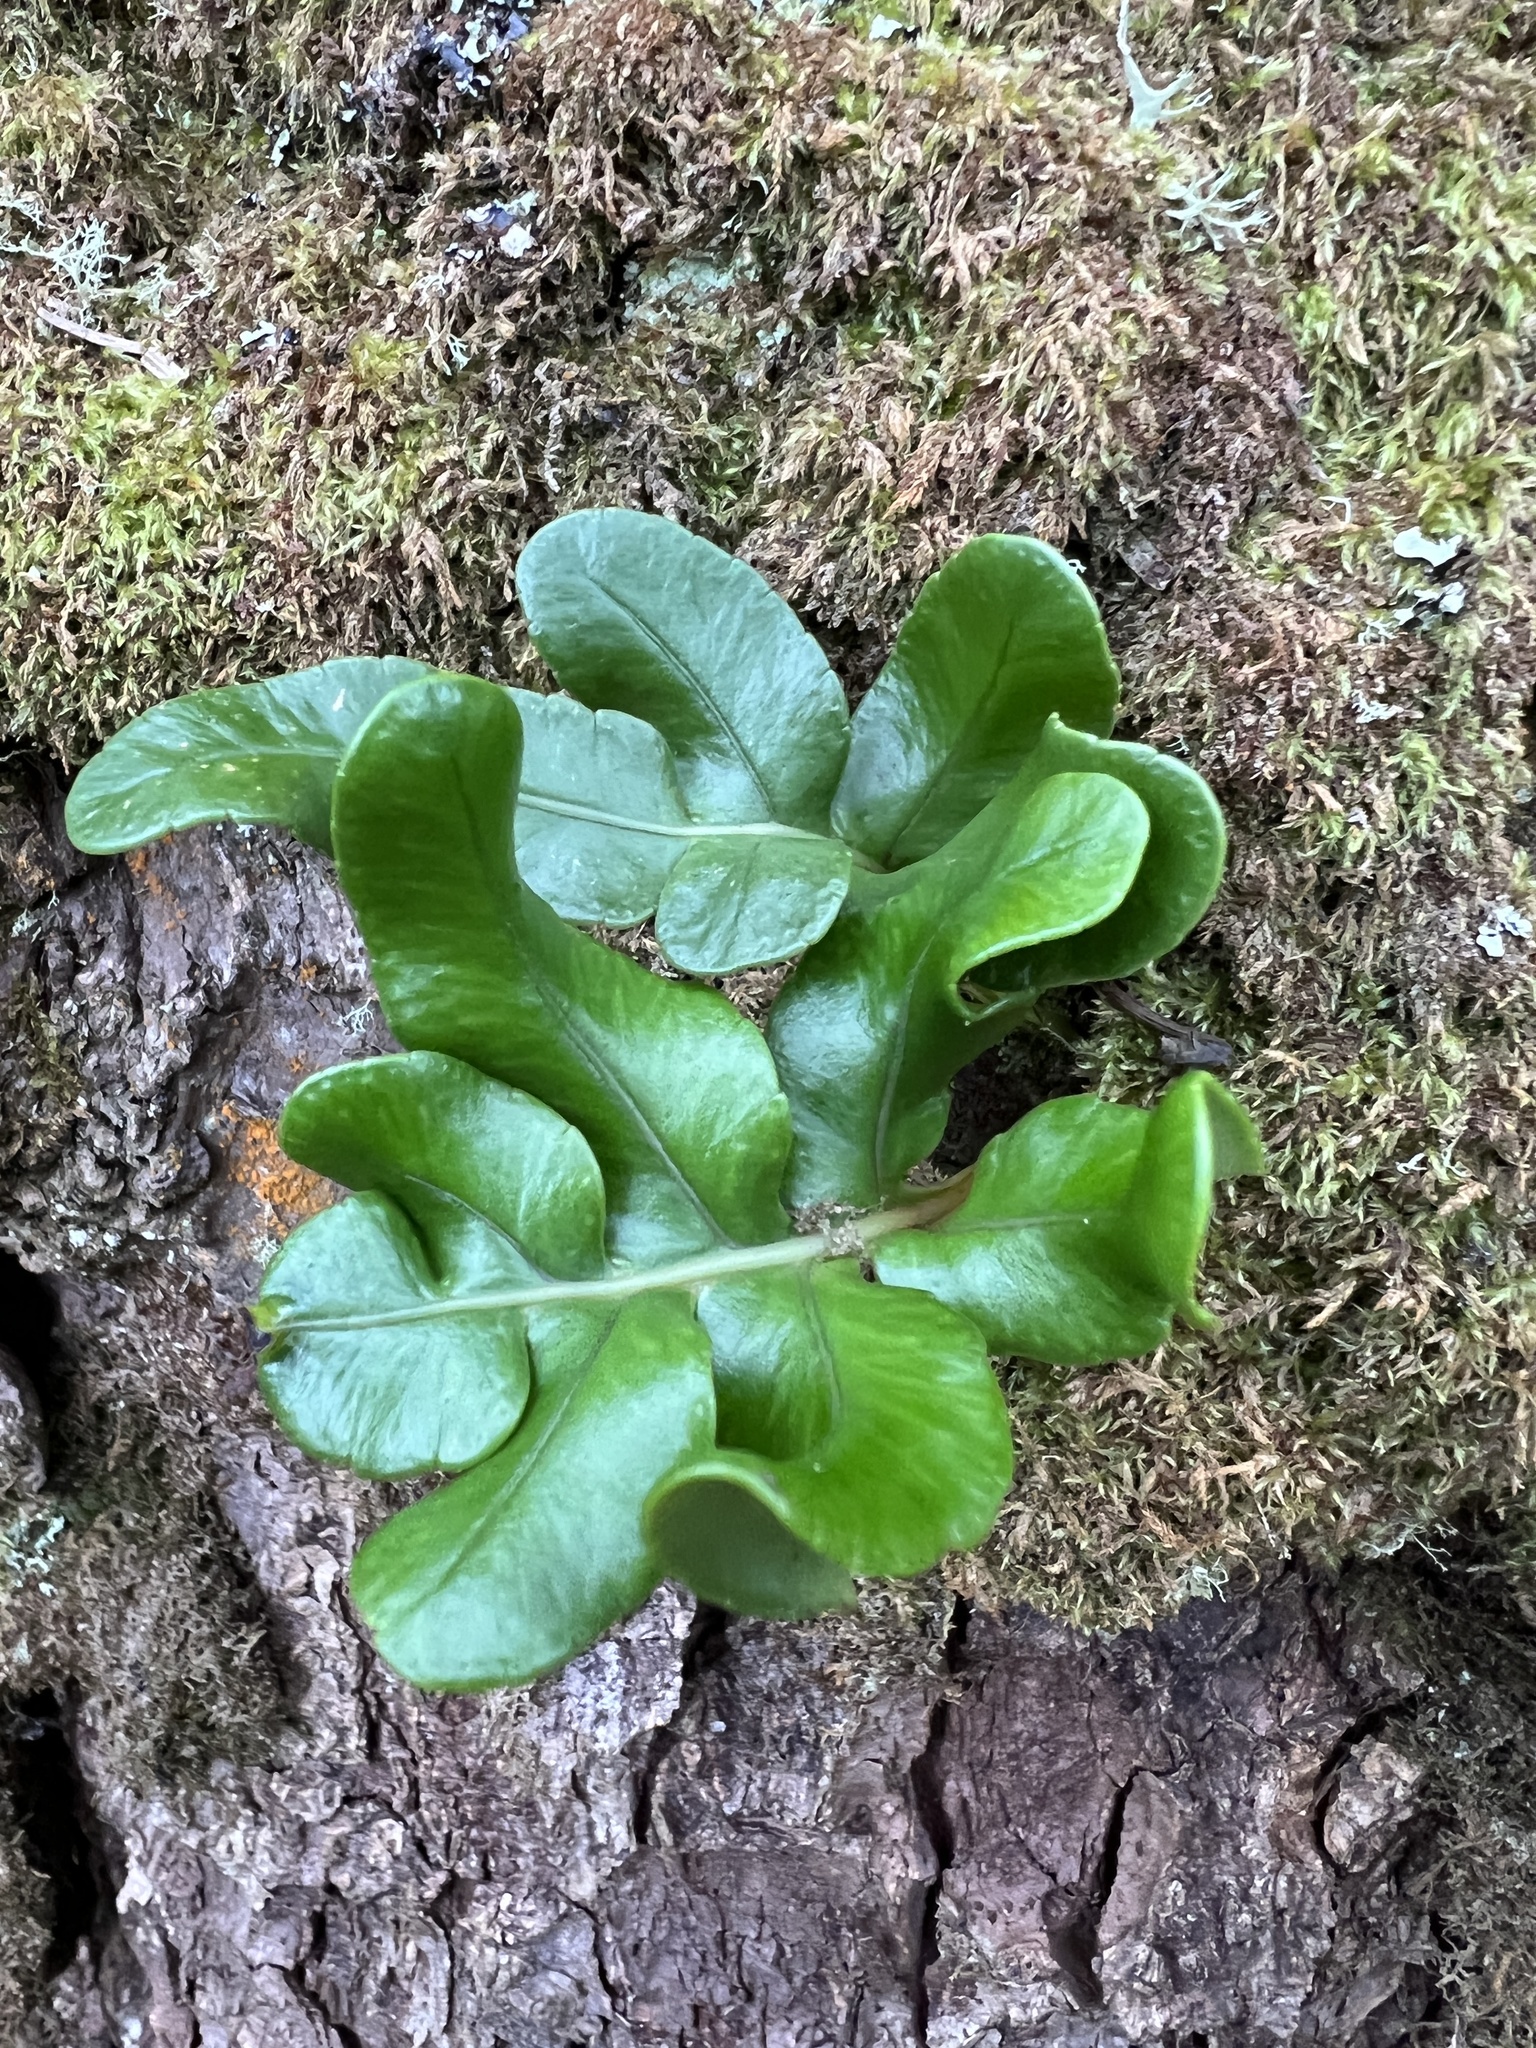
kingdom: Plantae
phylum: Tracheophyta
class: Polypodiopsida
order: Polypodiales
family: Polypodiaceae
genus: Polypodium
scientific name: Polypodium scouleri
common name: Scouler's polypody
